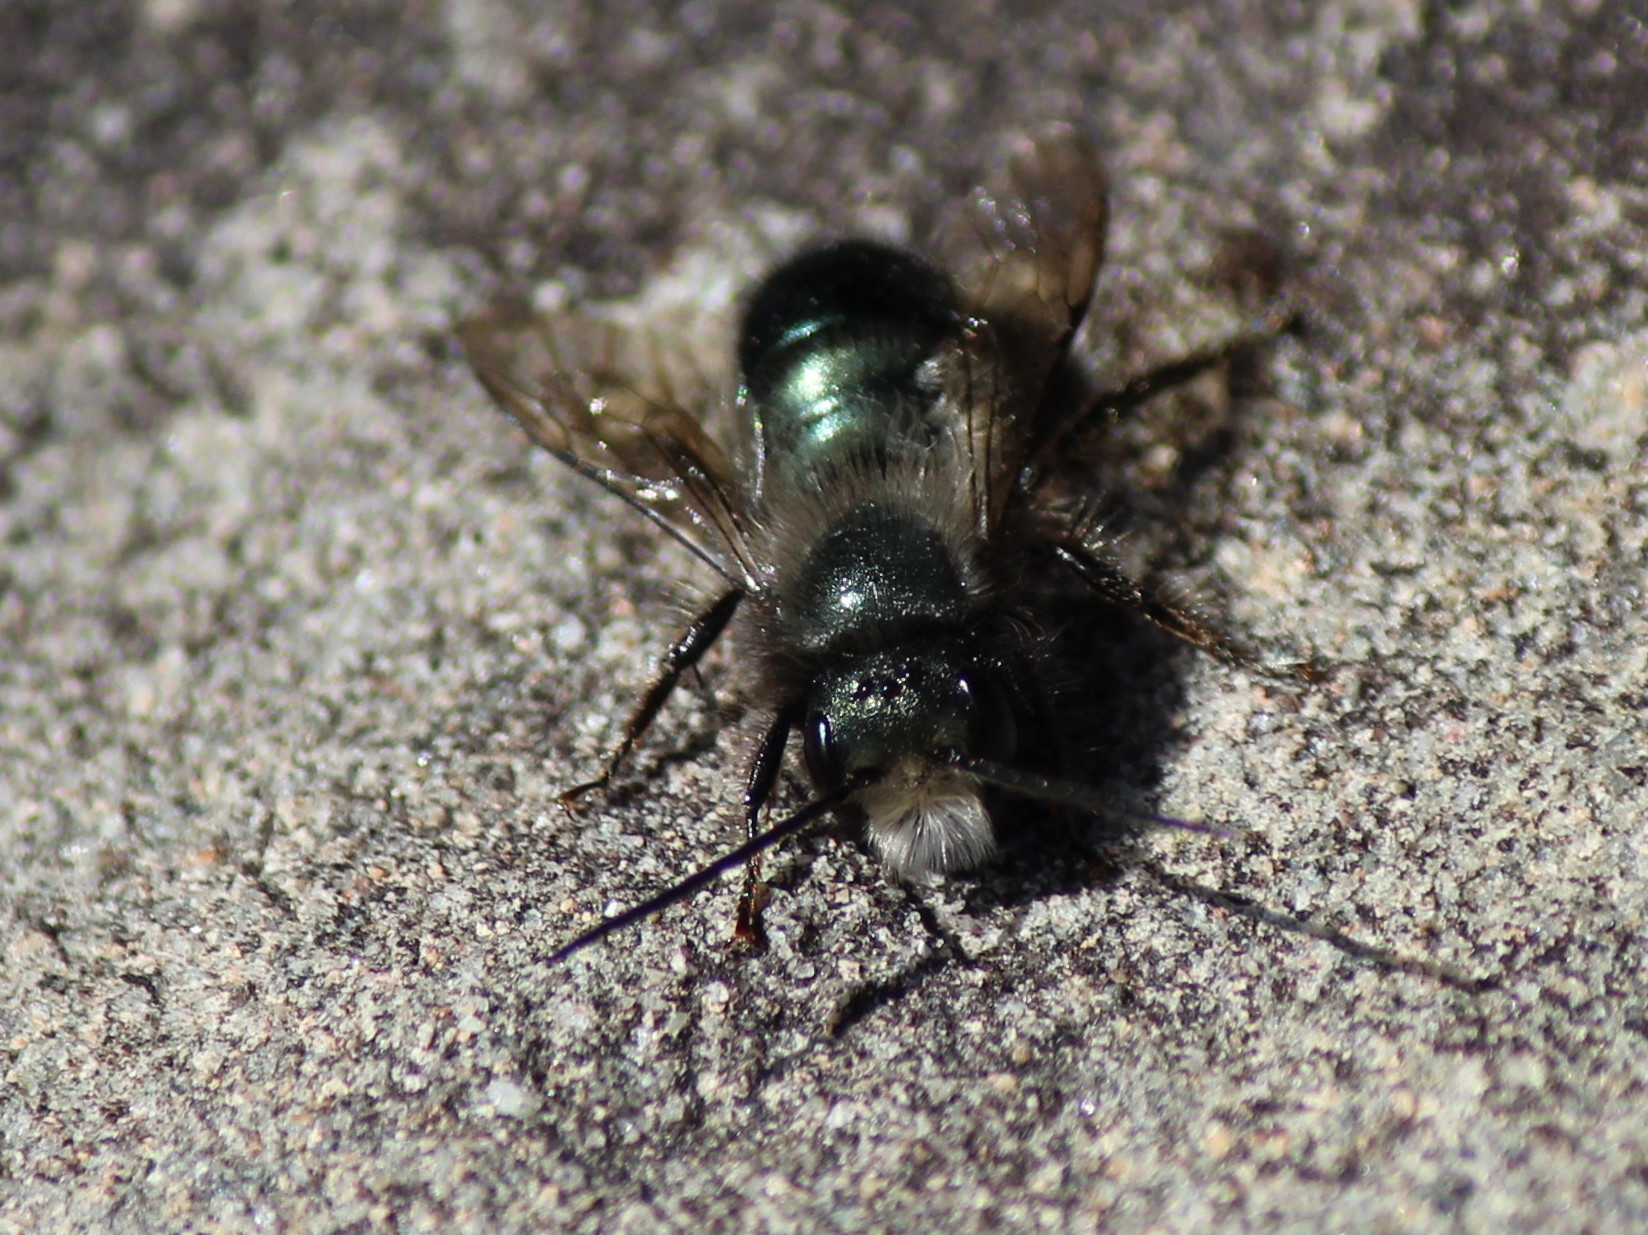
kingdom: Animalia
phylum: Arthropoda
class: Insecta
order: Hymenoptera
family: Megachilidae
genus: Osmia
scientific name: Osmia lignaria
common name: Blue orchard bee
